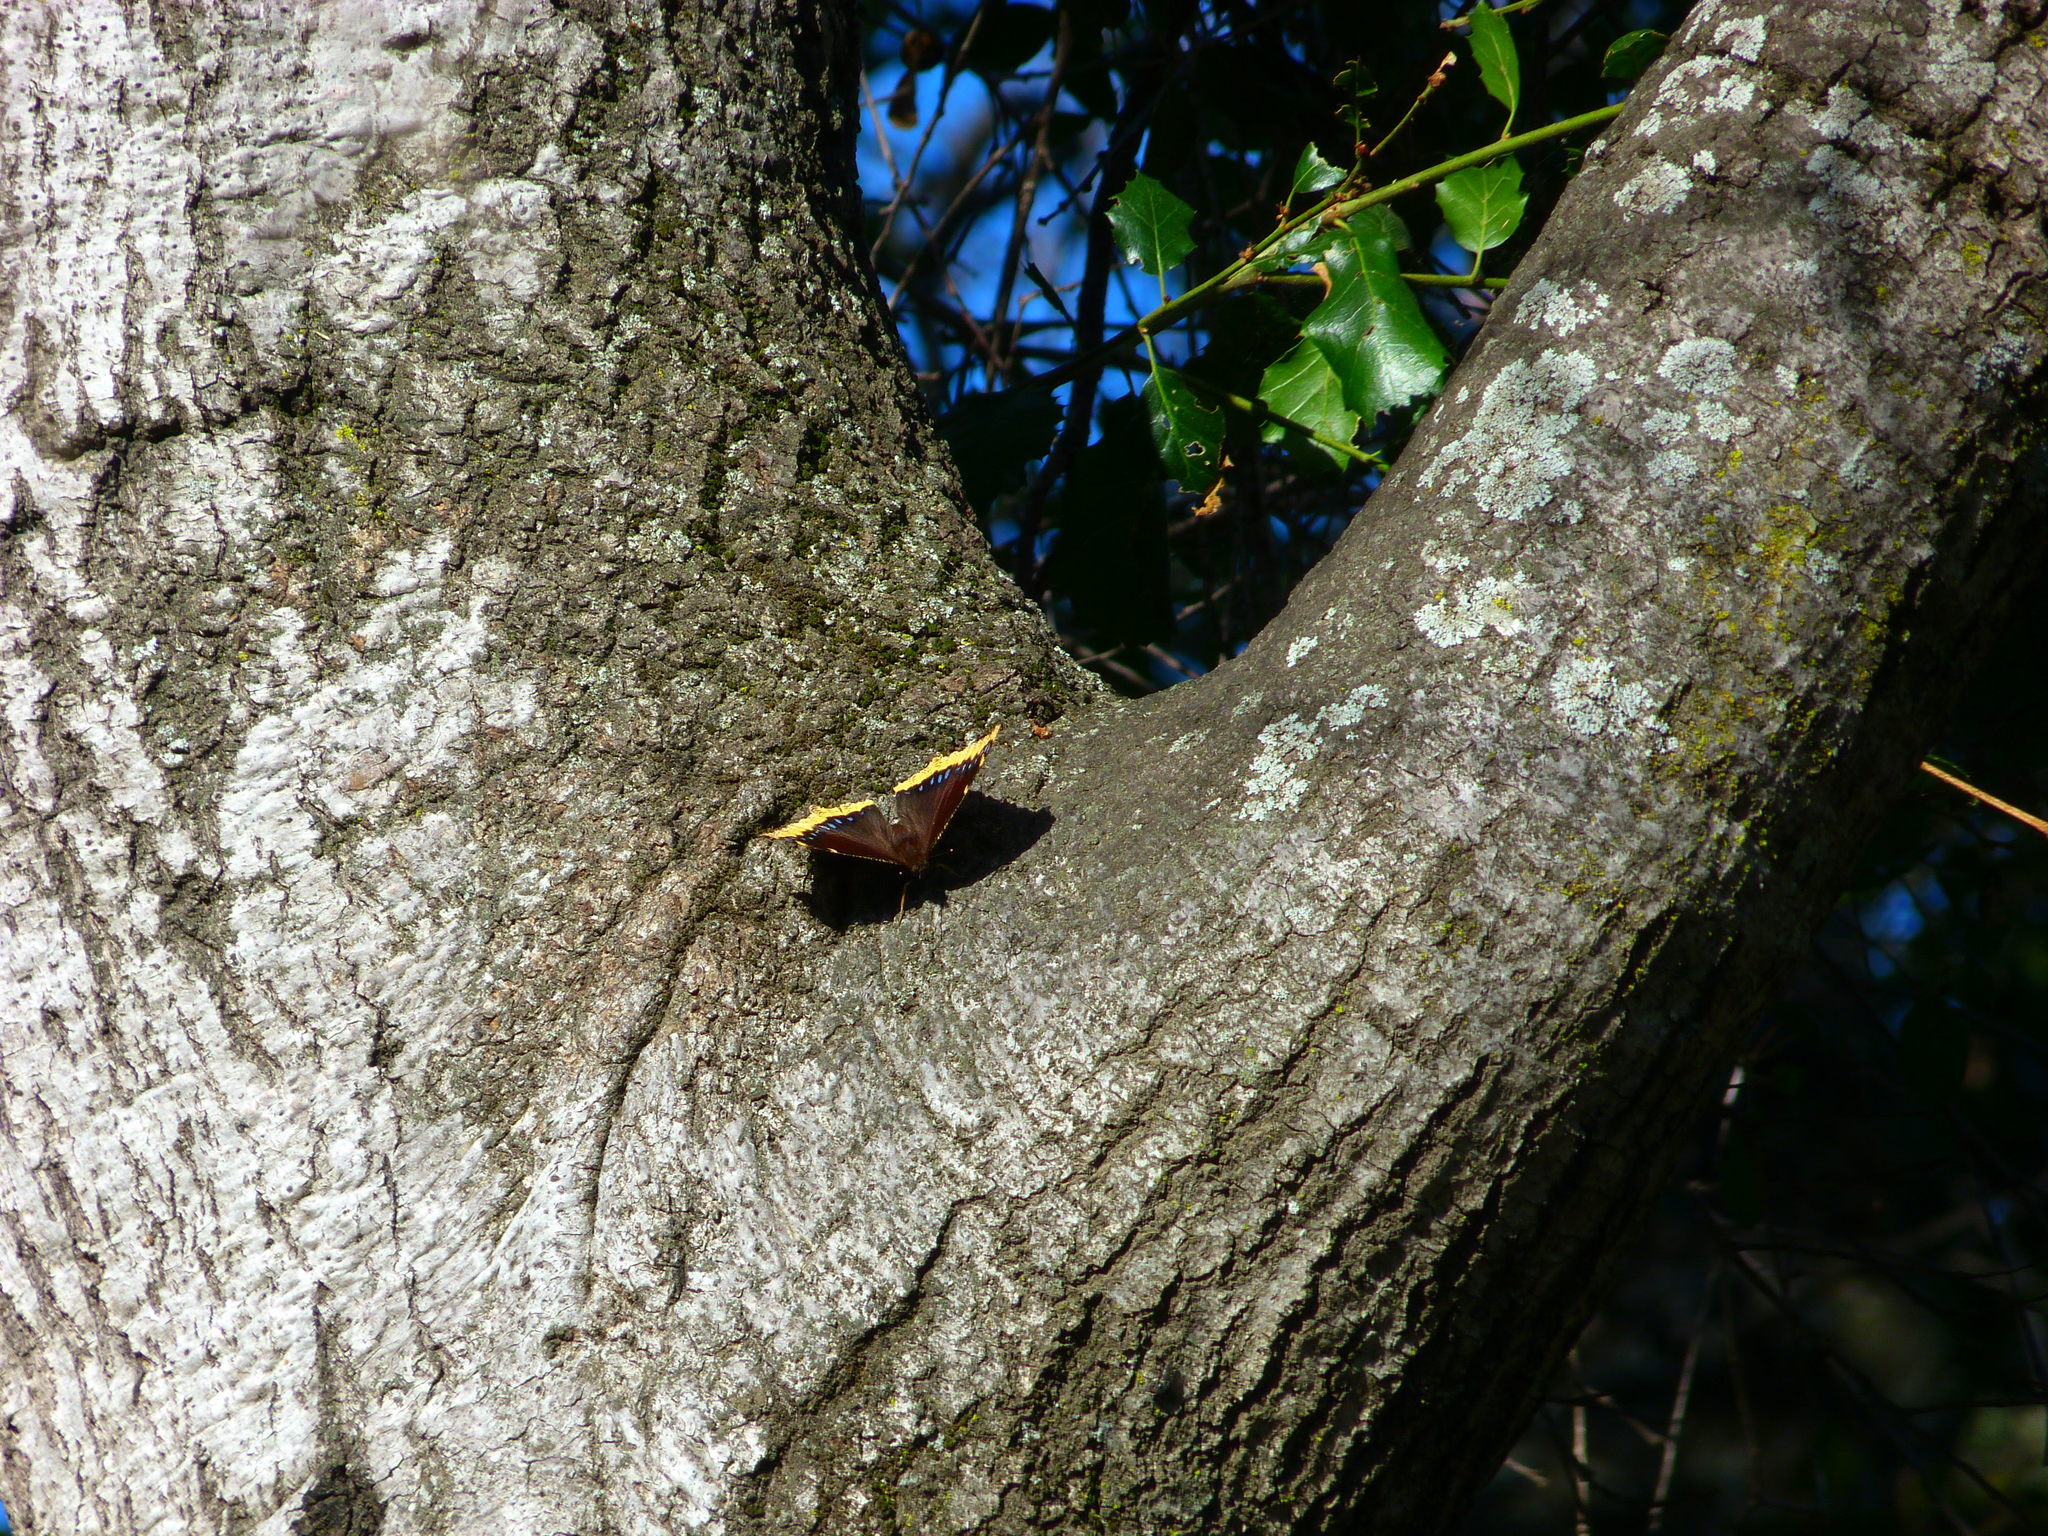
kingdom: Animalia
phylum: Arthropoda
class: Insecta
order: Lepidoptera
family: Nymphalidae
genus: Nymphalis
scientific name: Nymphalis antiopa
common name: Camberwell beauty
